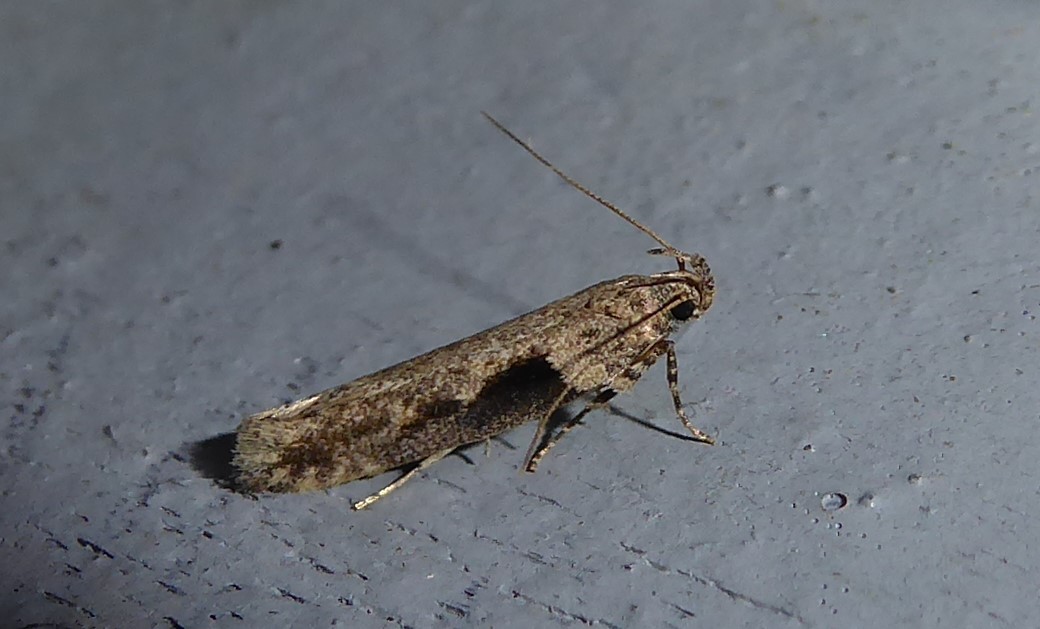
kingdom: Animalia
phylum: Arthropoda
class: Insecta
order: Lepidoptera
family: Gelechiidae
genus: Symmetrischema
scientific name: Symmetrischema tangolias
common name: Moth
